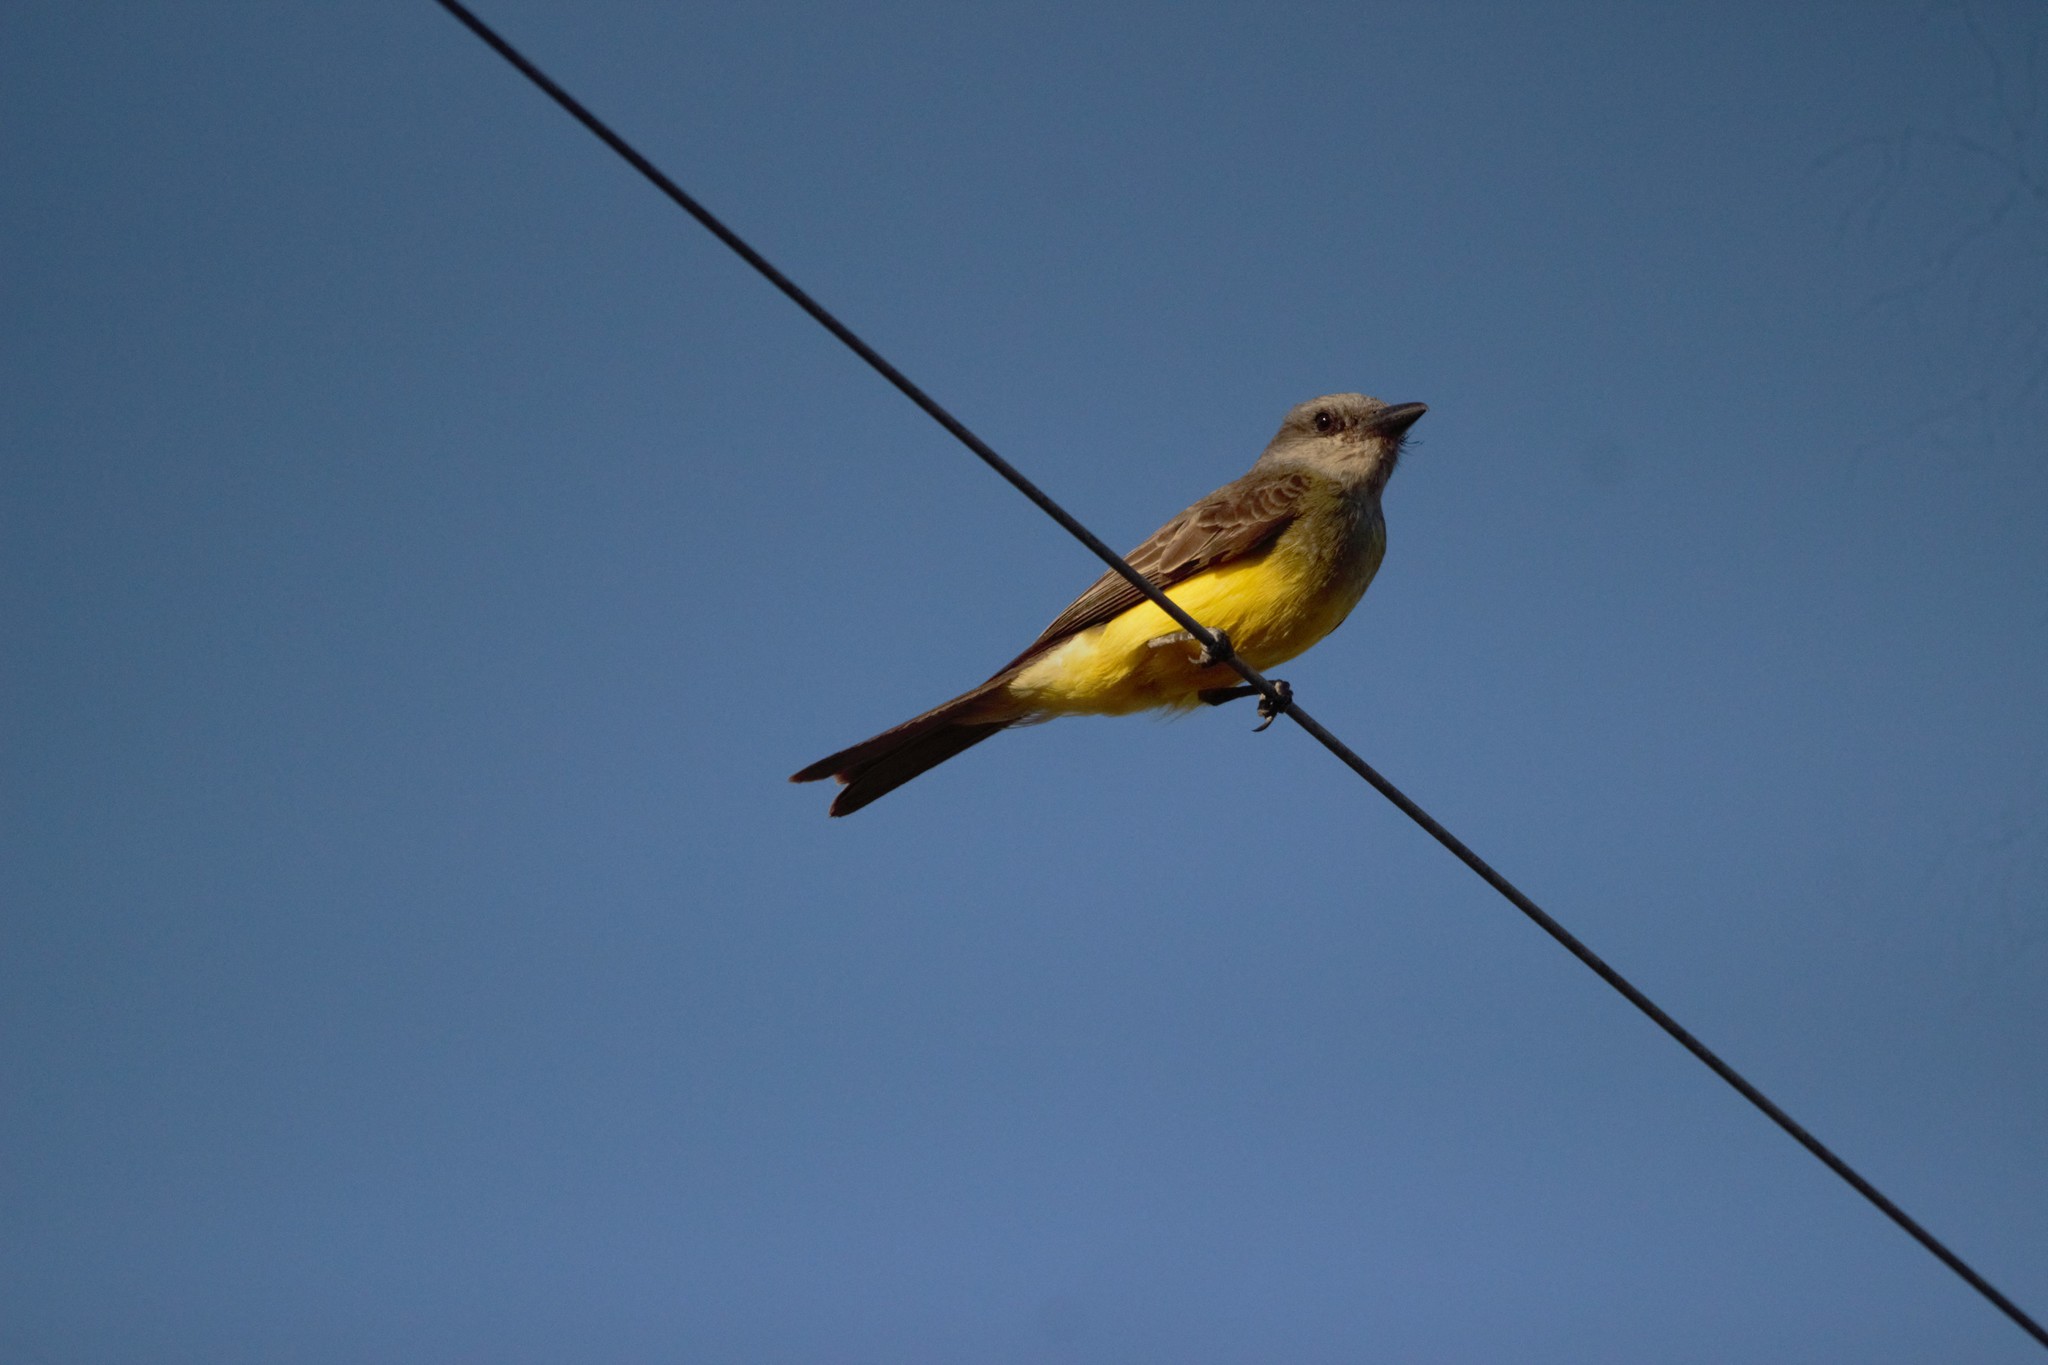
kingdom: Animalia
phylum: Chordata
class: Aves
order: Passeriformes
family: Tyrannidae
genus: Tyrannus
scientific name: Tyrannus melancholicus
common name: Tropical kingbird
